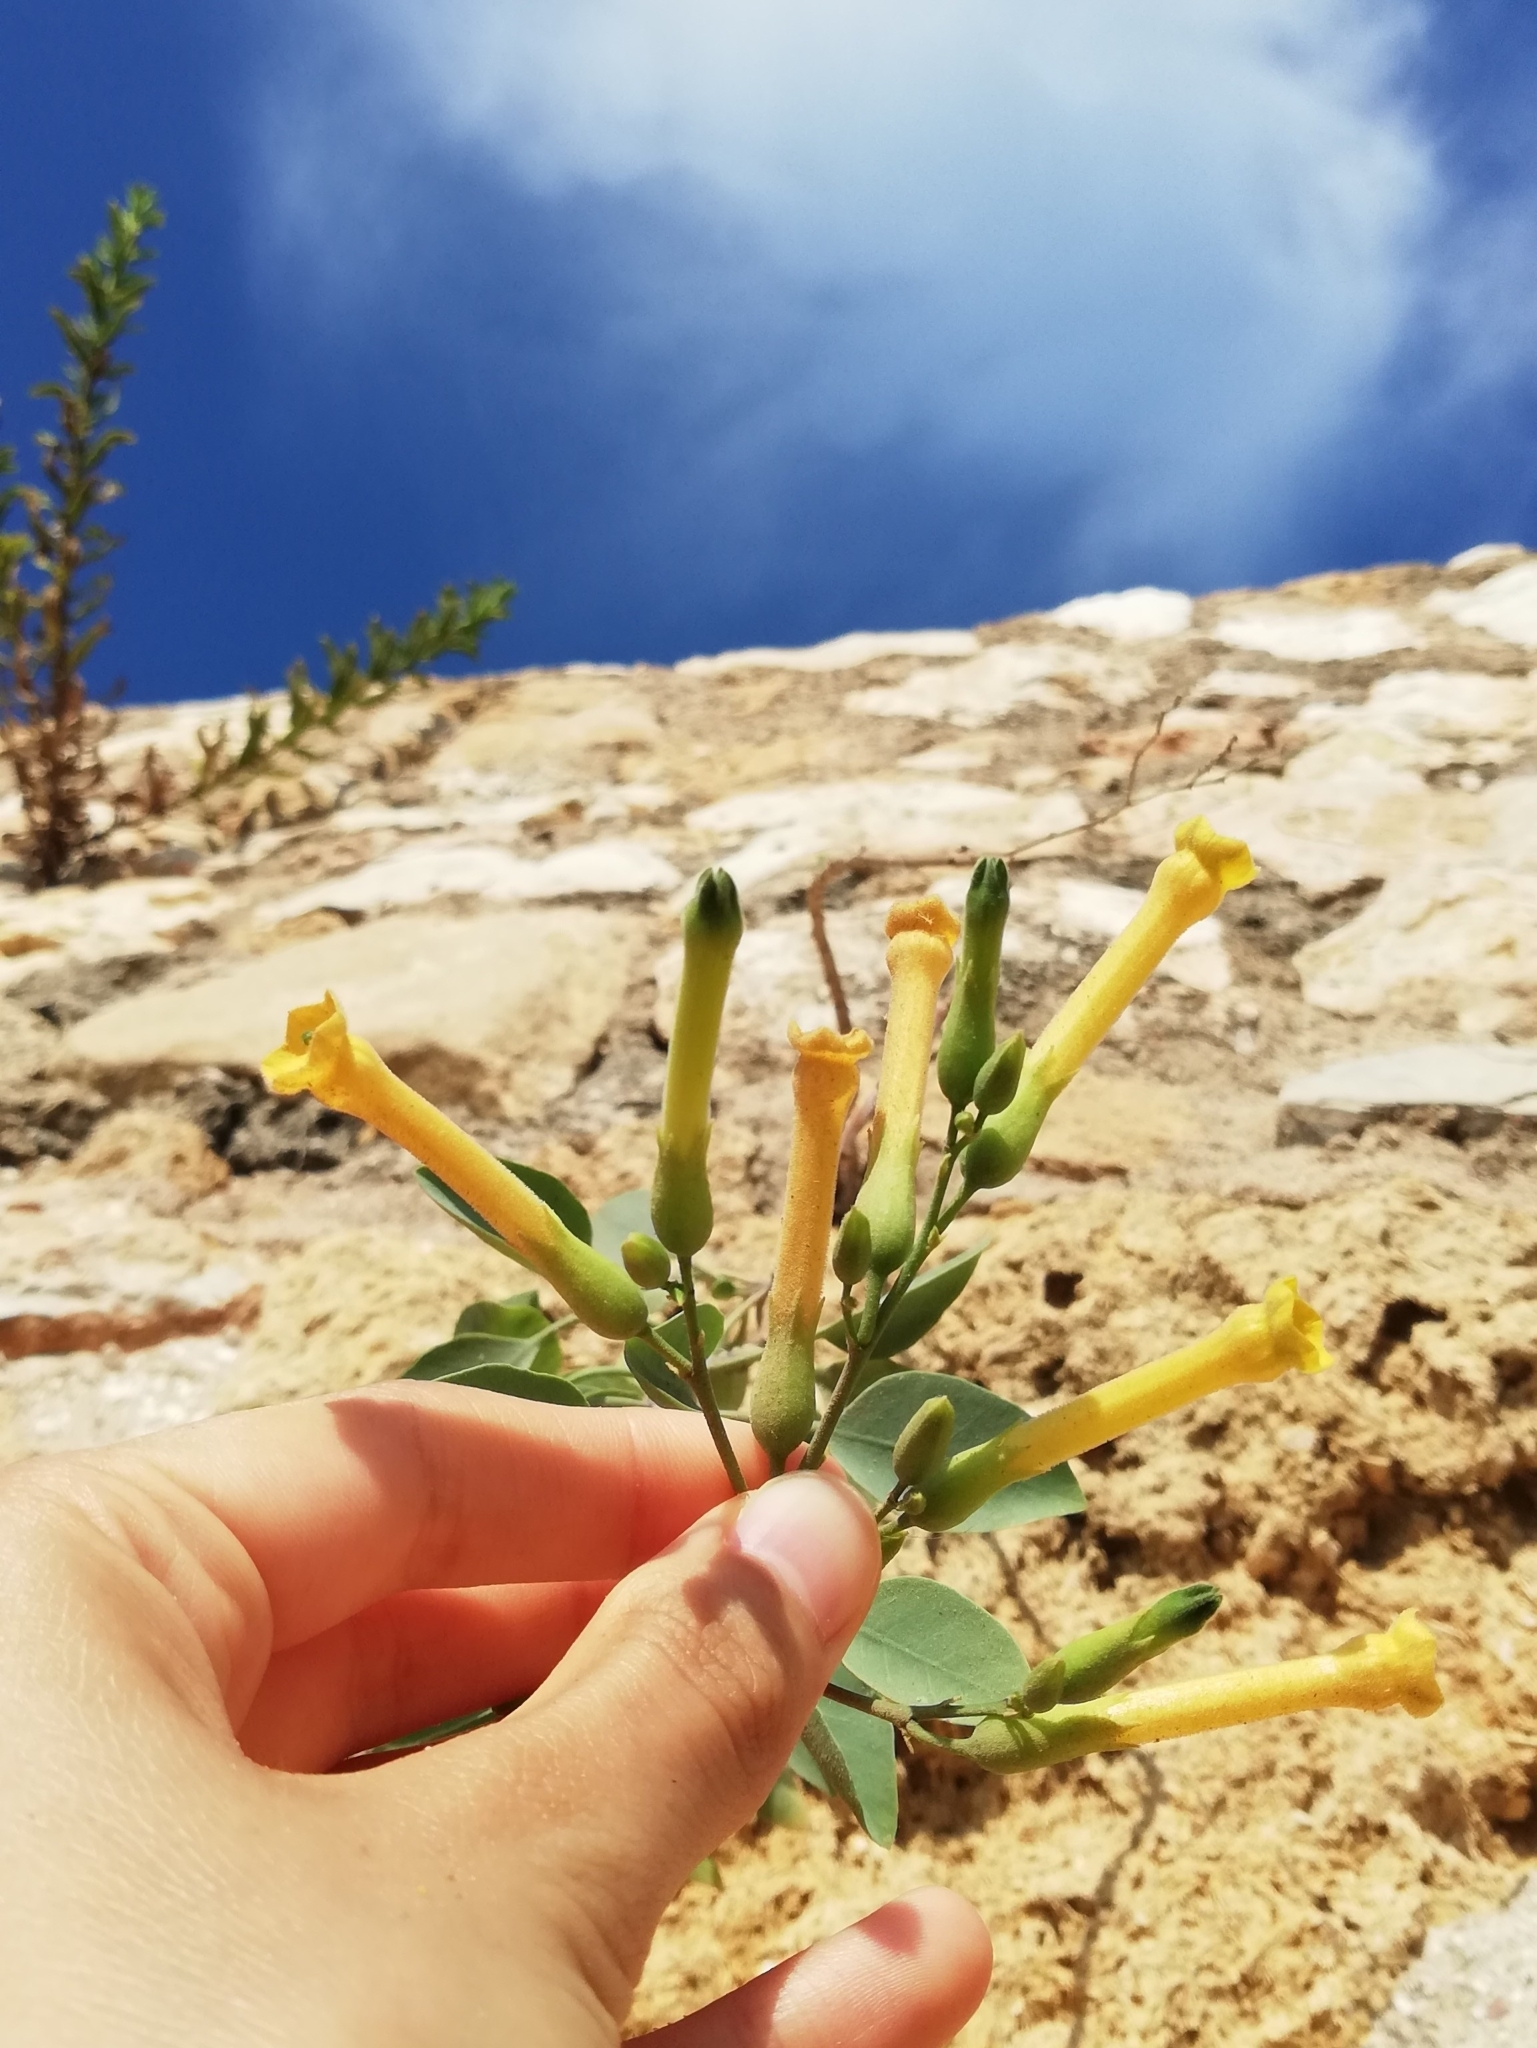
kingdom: Plantae
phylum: Tracheophyta
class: Magnoliopsida
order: Solanales
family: Solanaceae
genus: Nicotiana
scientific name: Nicotiana glauca
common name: Tree tobacco
